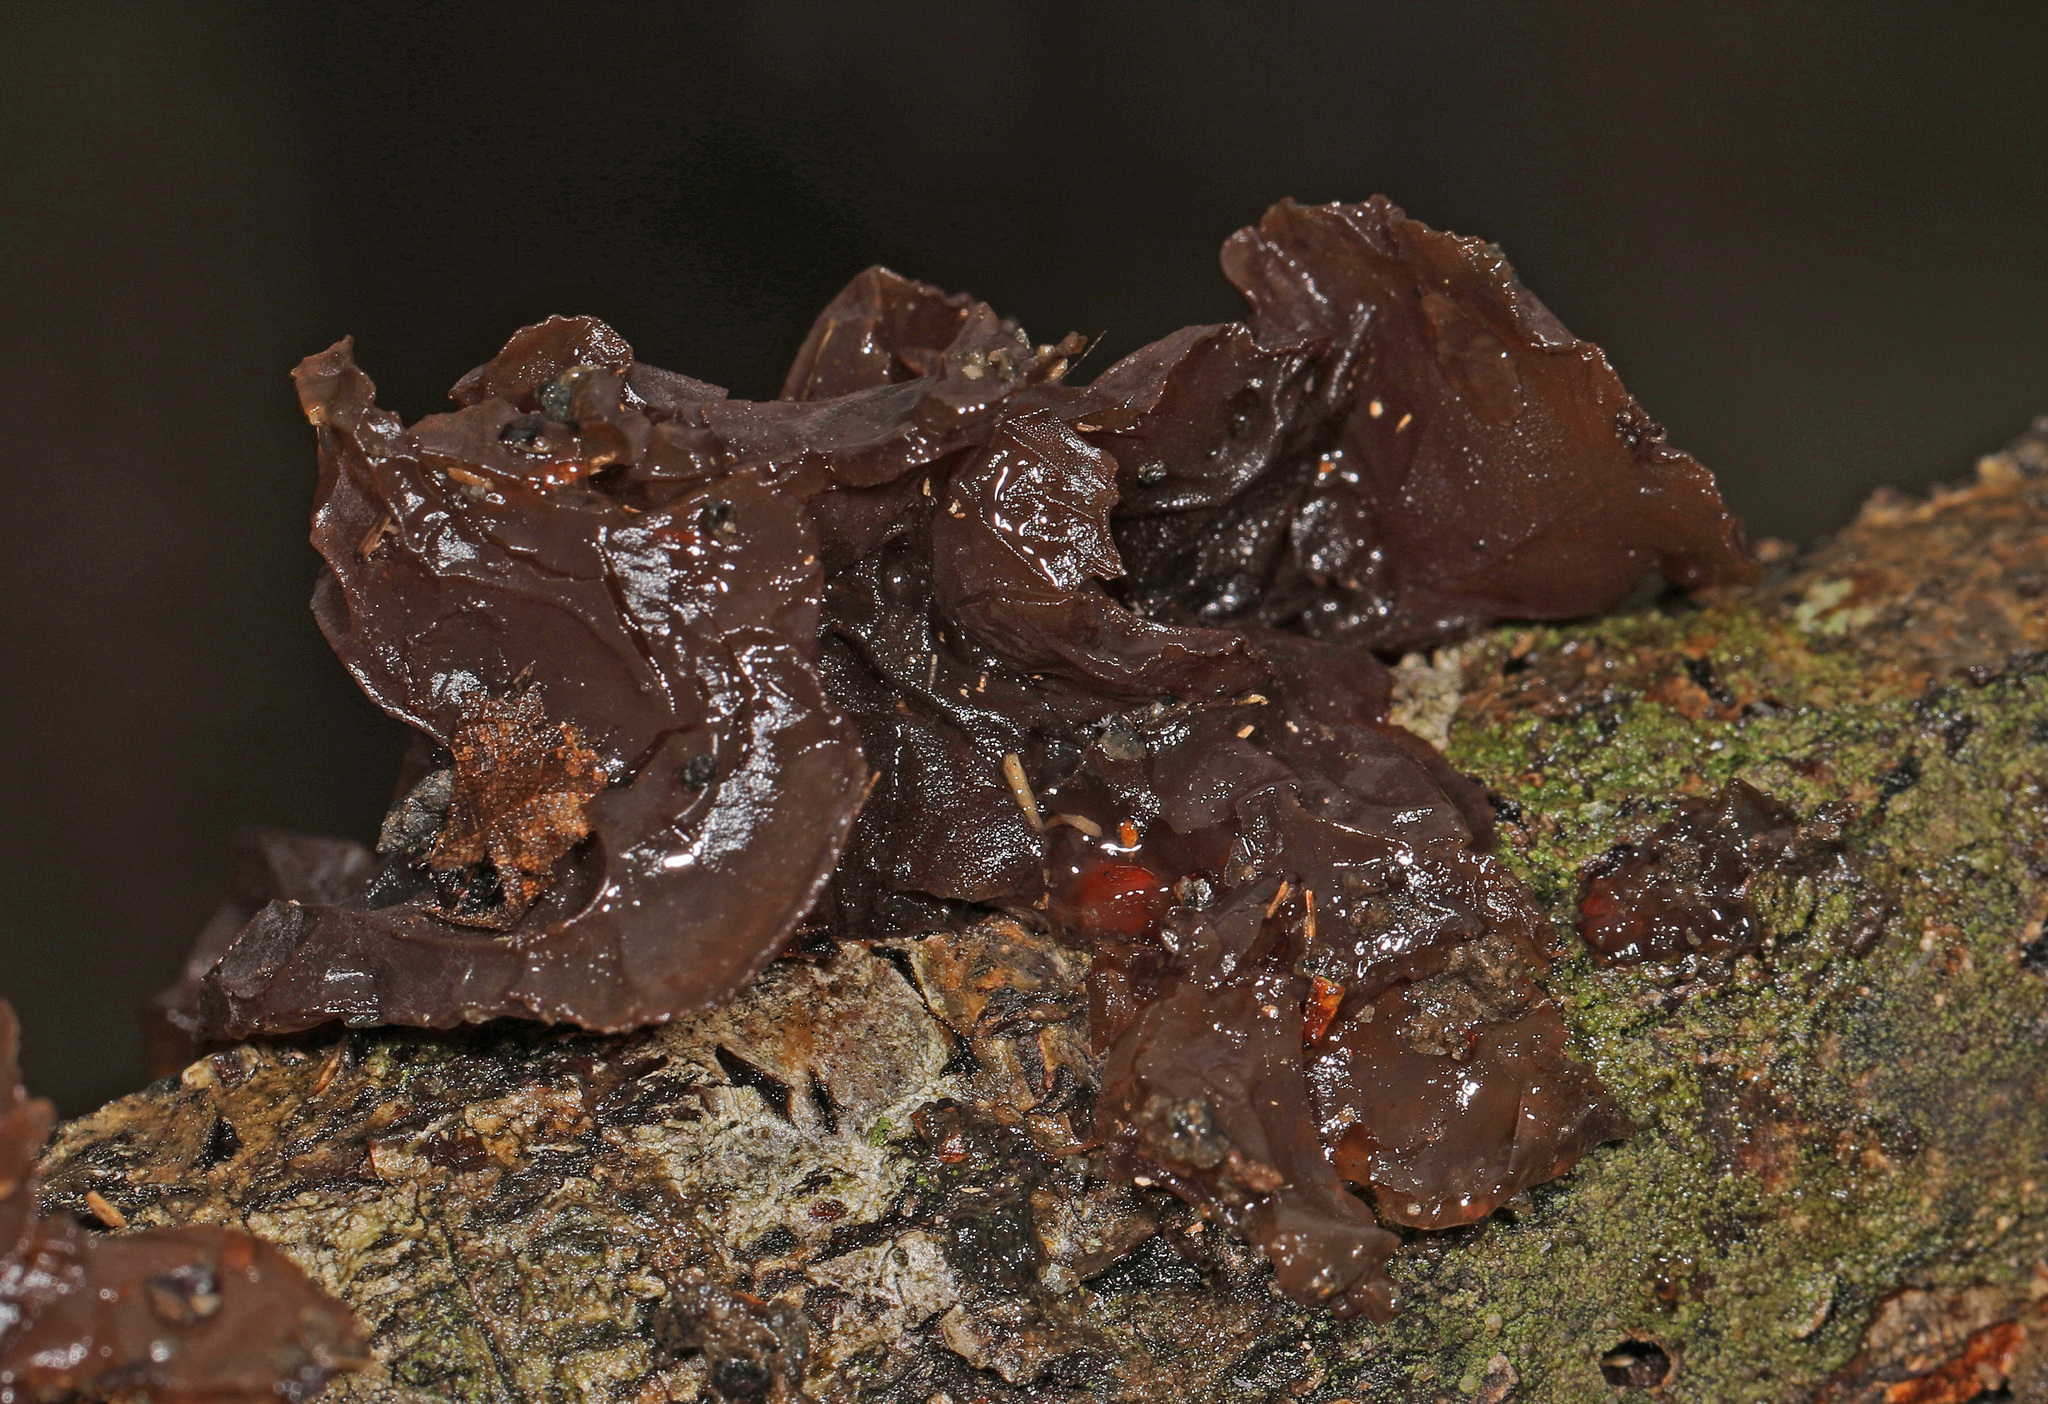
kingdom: Fungi
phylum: Basidiomycota
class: Agaricomycetes
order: Auriculariales
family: Auriculariaceae
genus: Exidia
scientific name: Exidia
